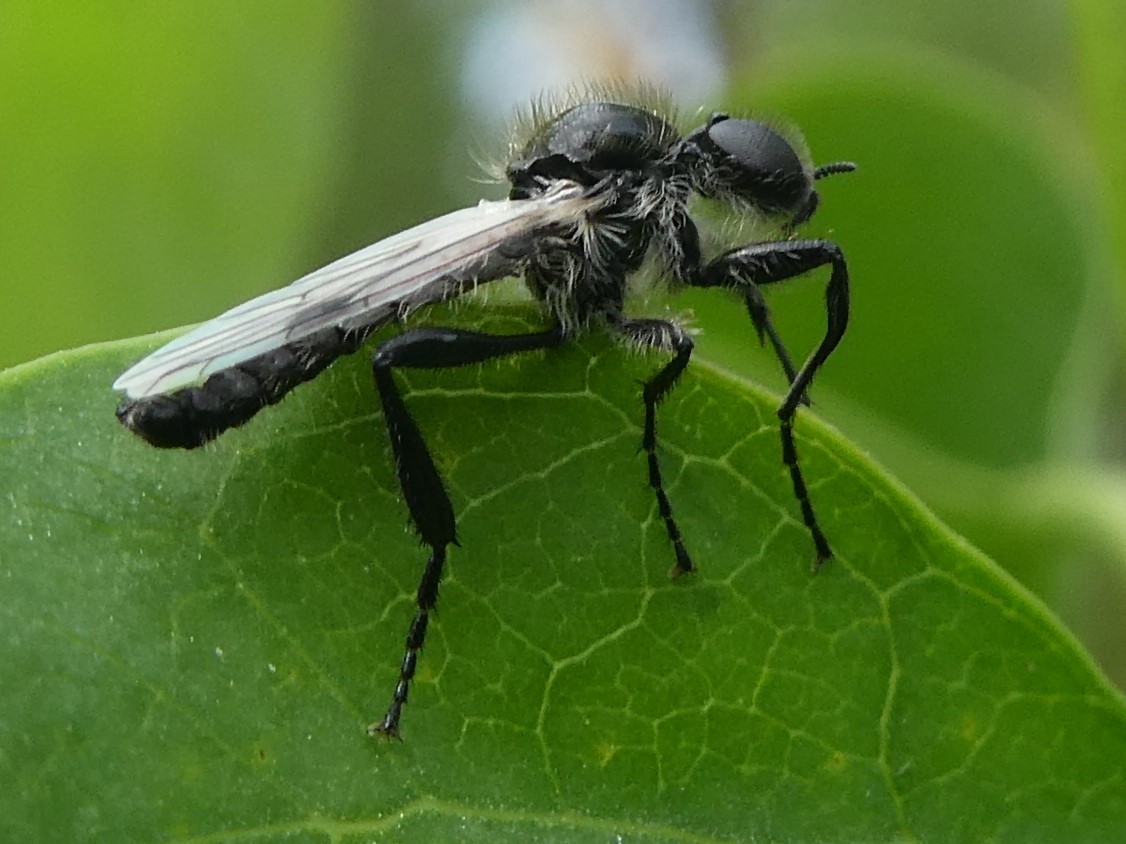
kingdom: Animalia
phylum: Arthropoda
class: Insecta
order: Diptera
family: Bibionidae
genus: Bibio
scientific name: Bibio albipennis
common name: White-winged march fly
